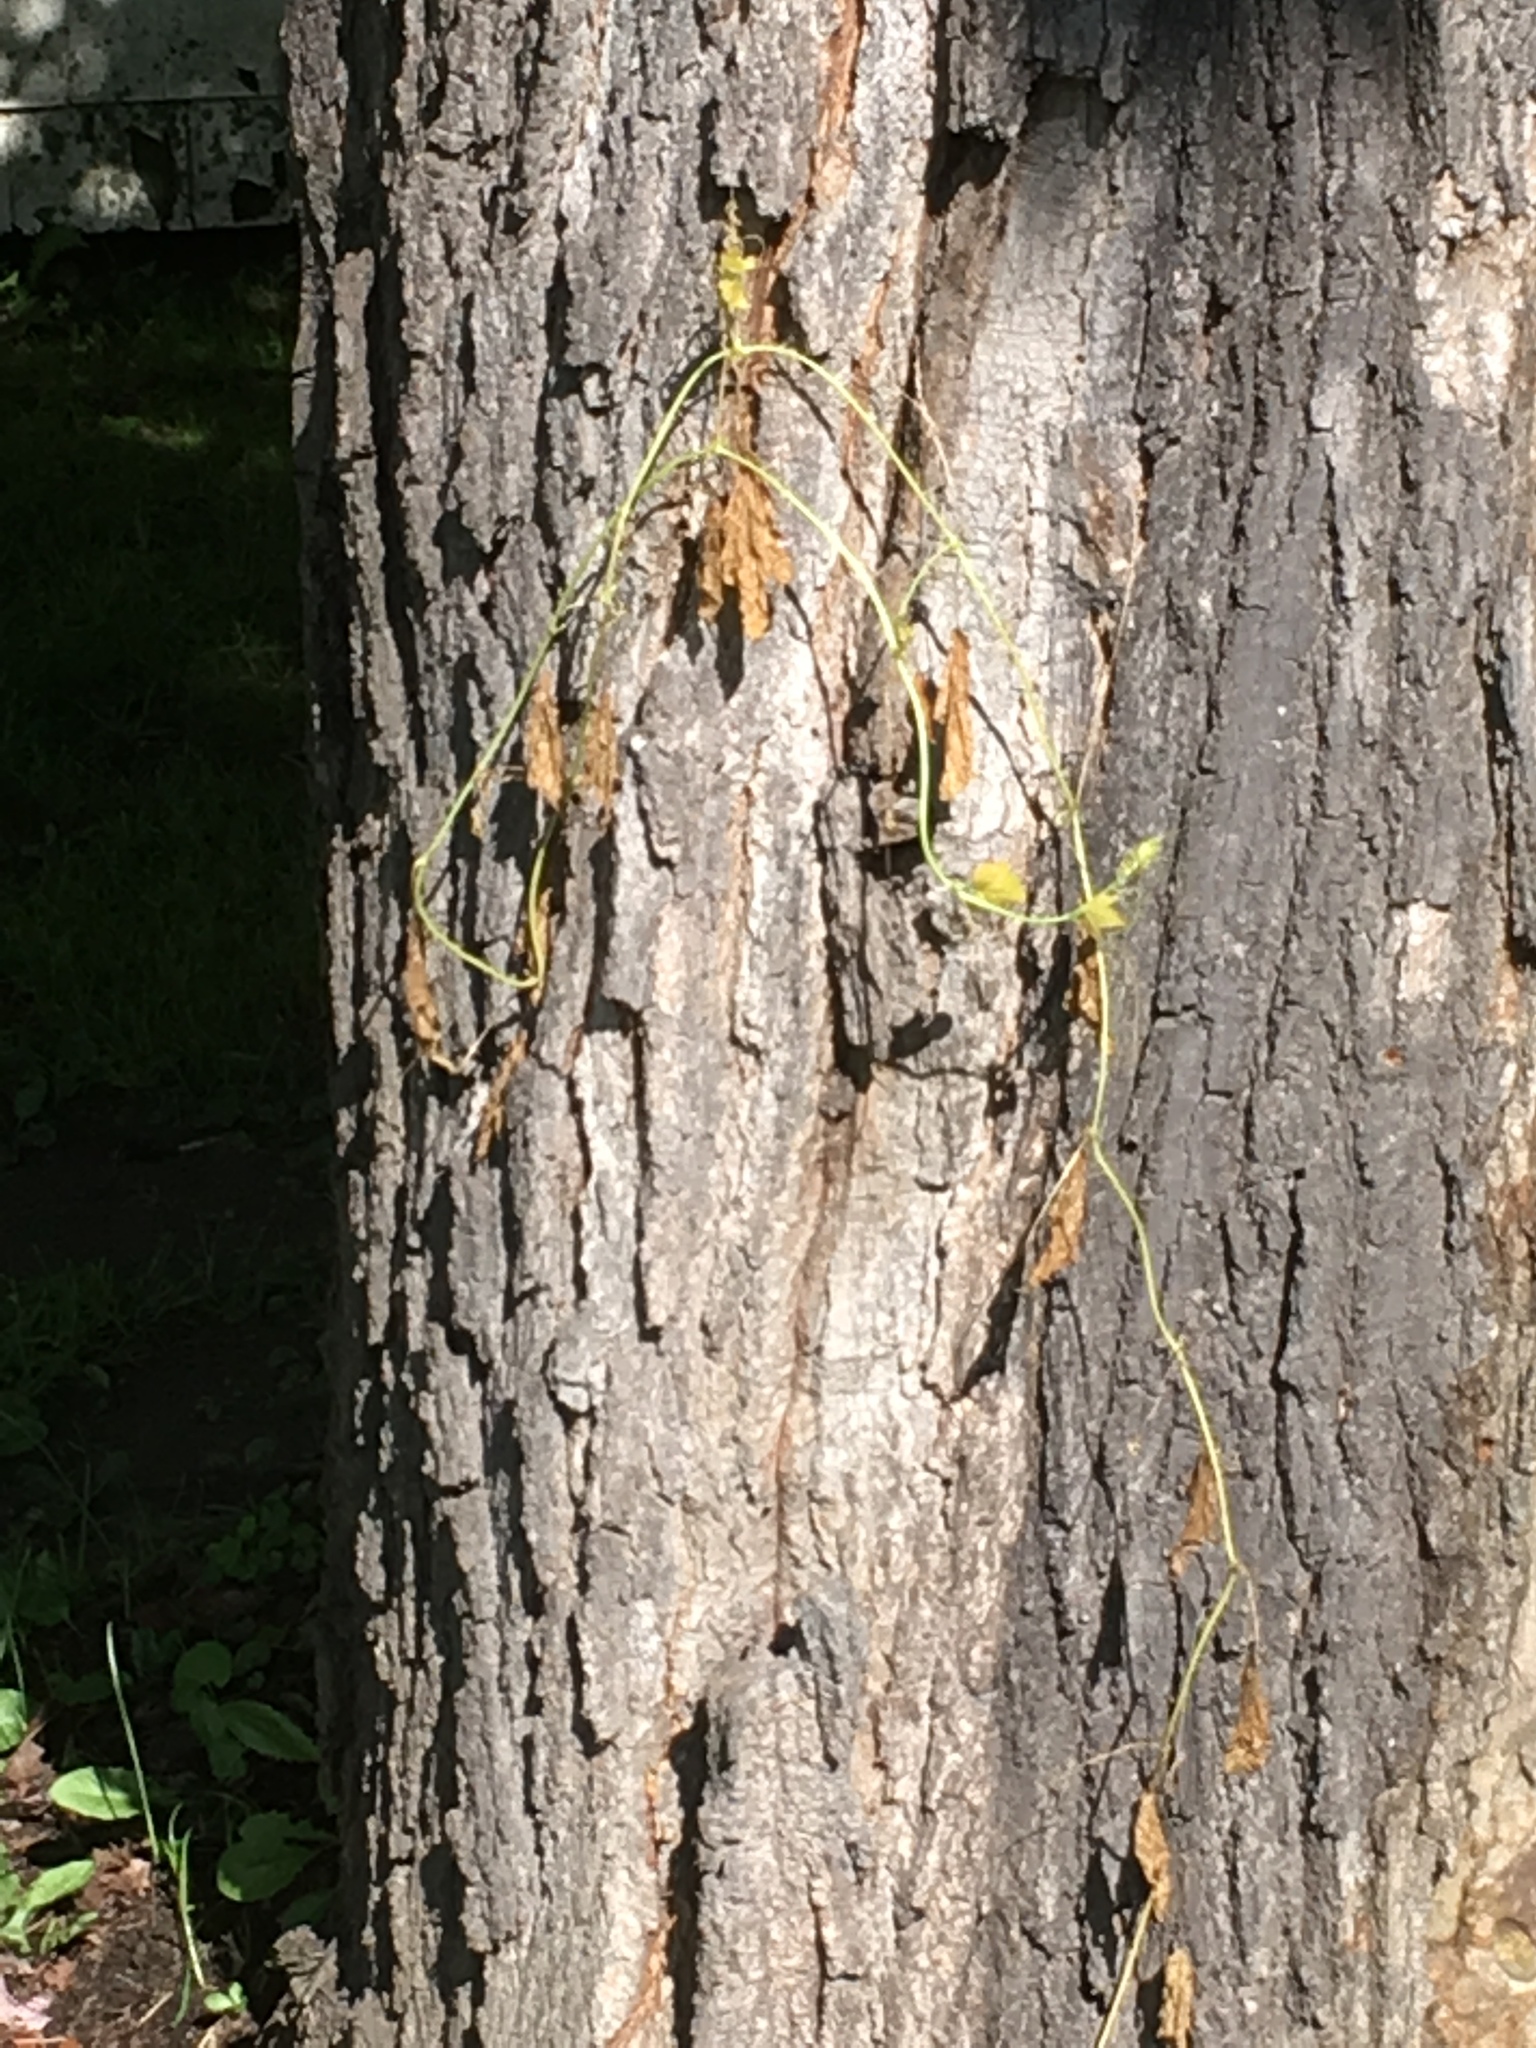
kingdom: Plantae
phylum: Tracheophyta
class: Magnoliopsida
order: Cucurbitales
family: Cucurbitaceae
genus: Echinocystis
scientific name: Echinocystis lobata
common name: Wild cucumber
